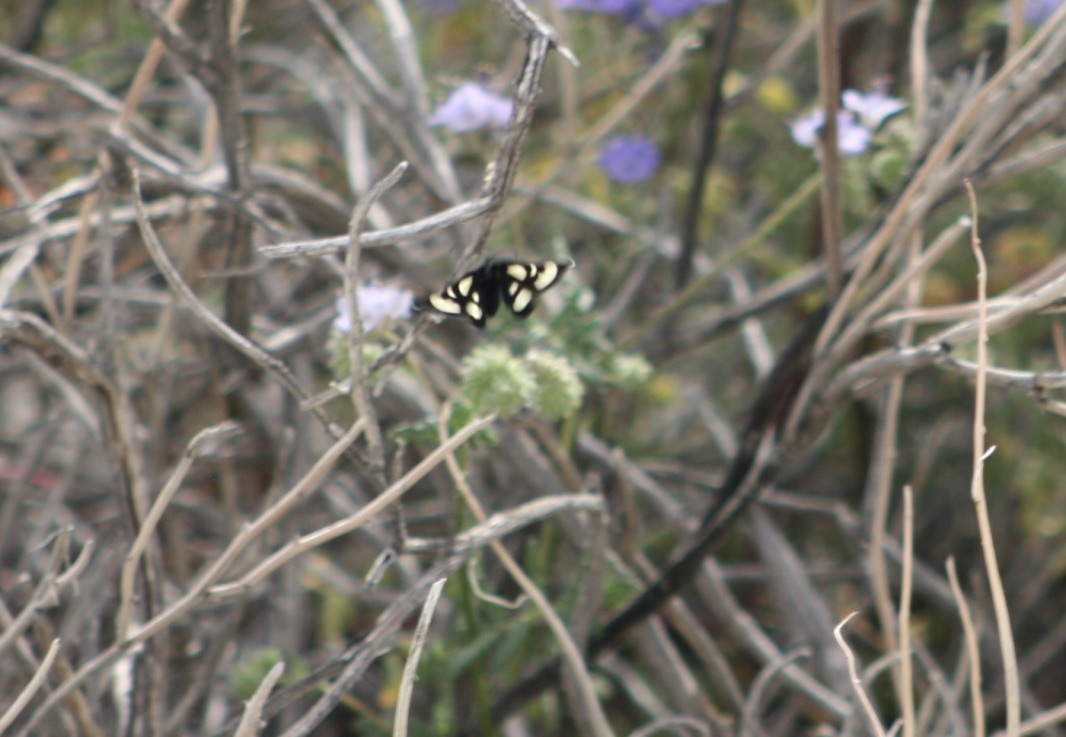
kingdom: Animalia
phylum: Arthropoda
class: Insecta
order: Lepidoptera
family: Noctuidae
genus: Alypia
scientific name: Alypia ridingsii
